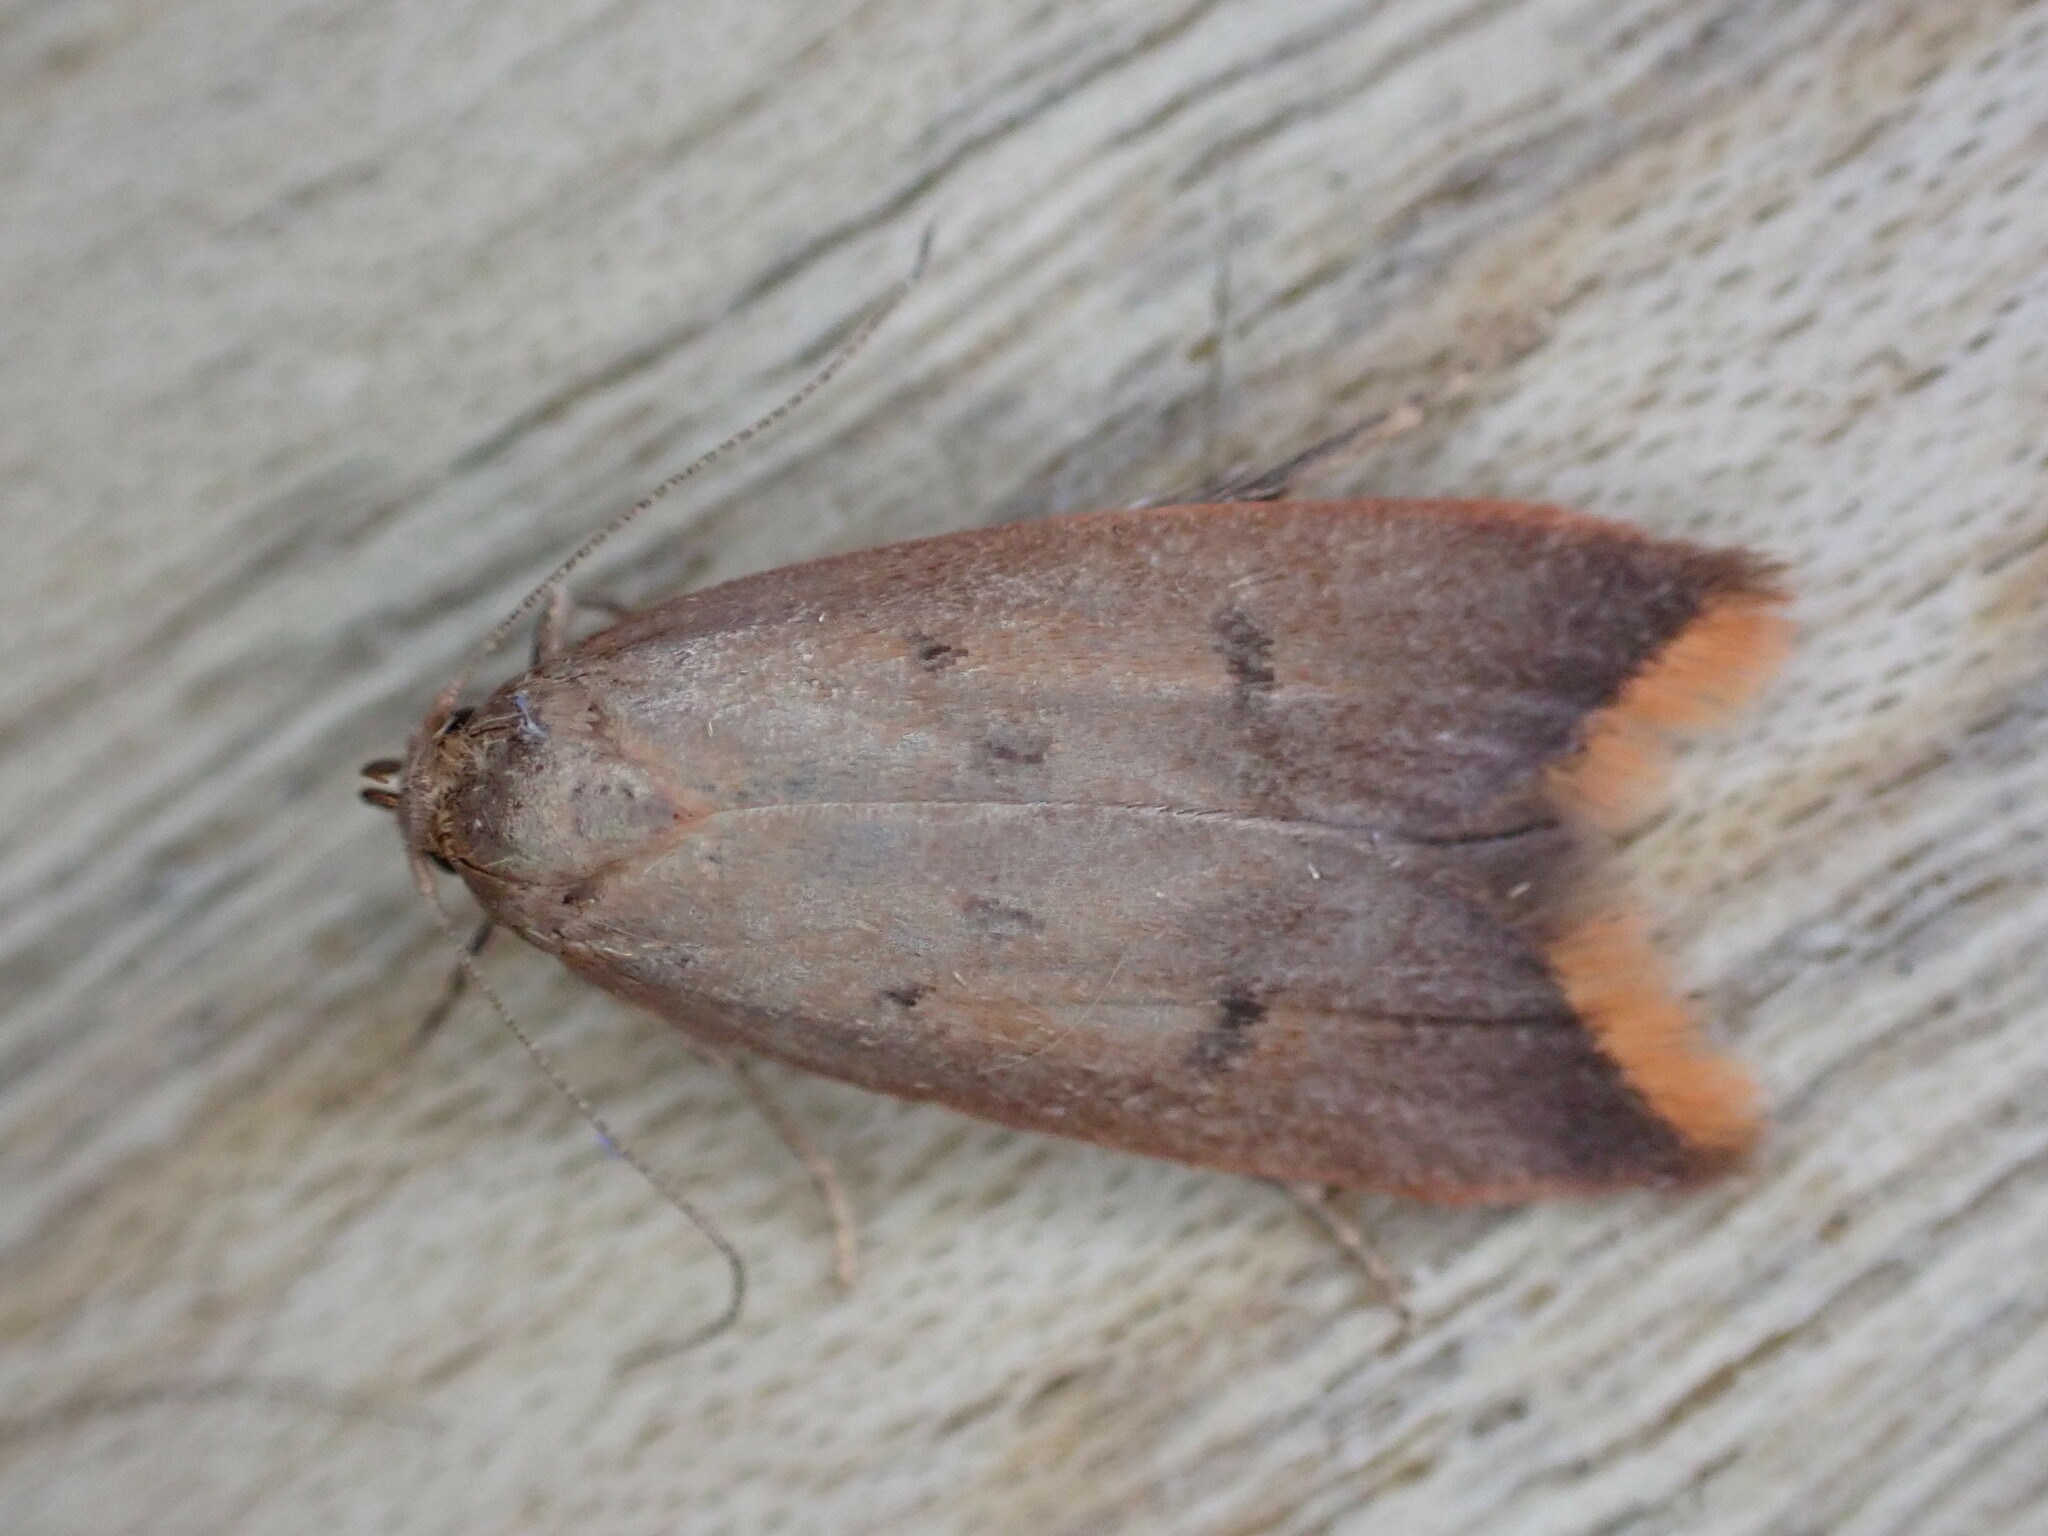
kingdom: Animalia
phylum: Arthropoda
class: Insecta
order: Lepidoptera
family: Oecophoridae
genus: Tachystola
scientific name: Tachystola acroxantha
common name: Ruddy streak
